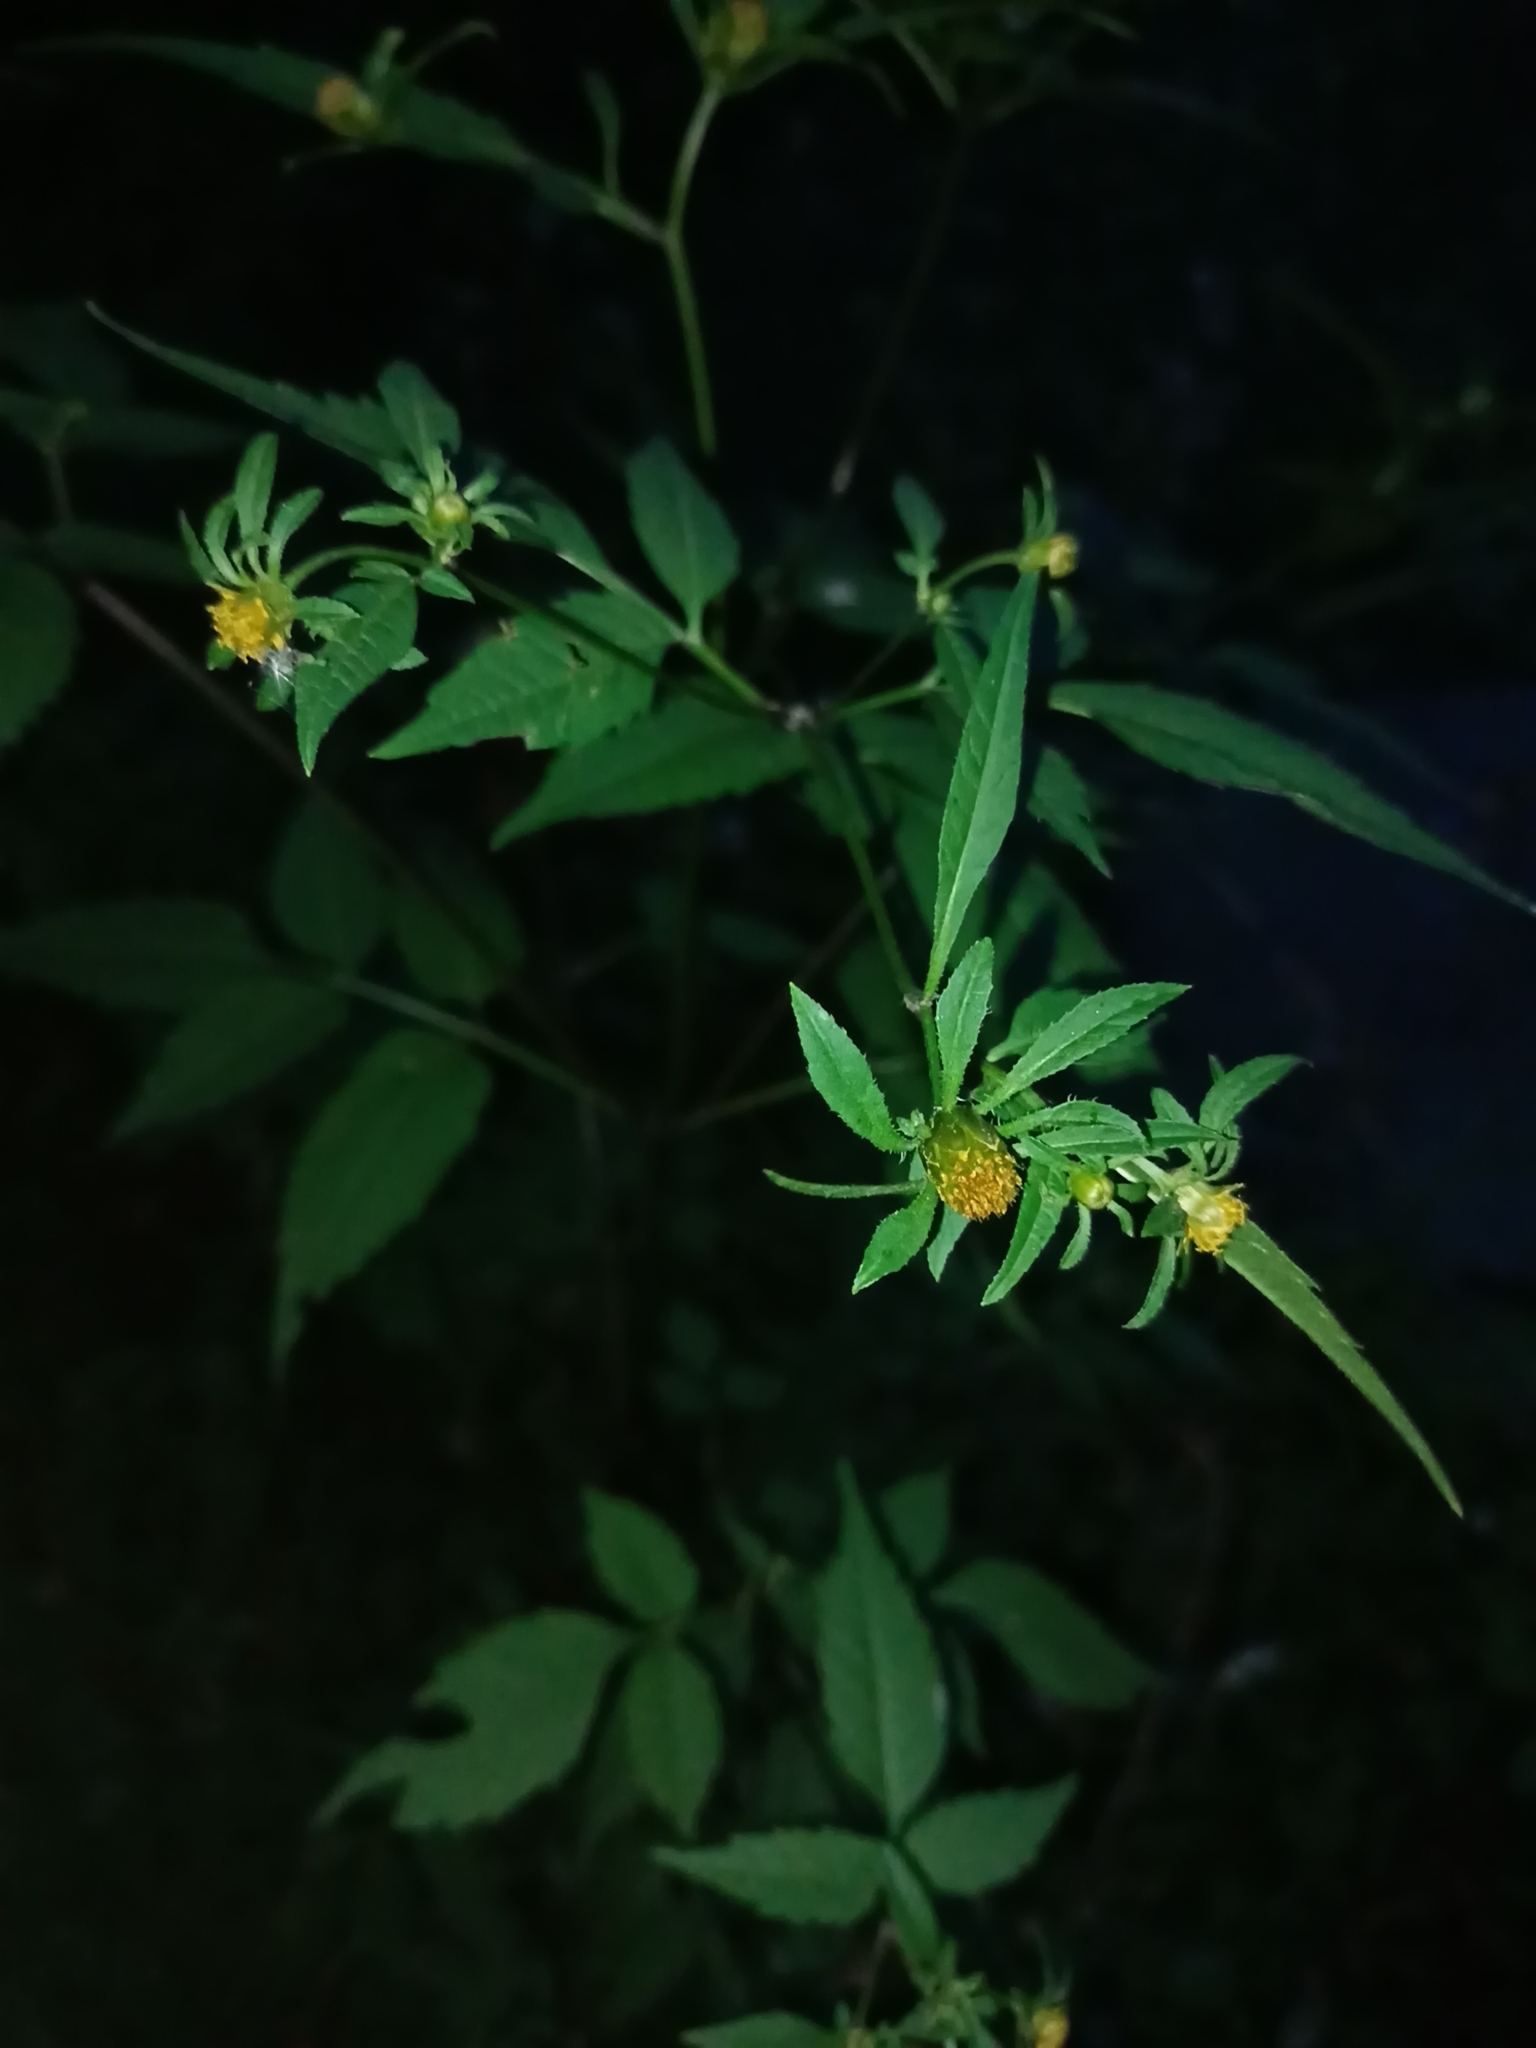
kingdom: Plantae
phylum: Tracheophyta
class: Magnoliopsida
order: Asterales
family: Asteraceae
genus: Bidens
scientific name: Bidens frondosa
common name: Beggarticks
